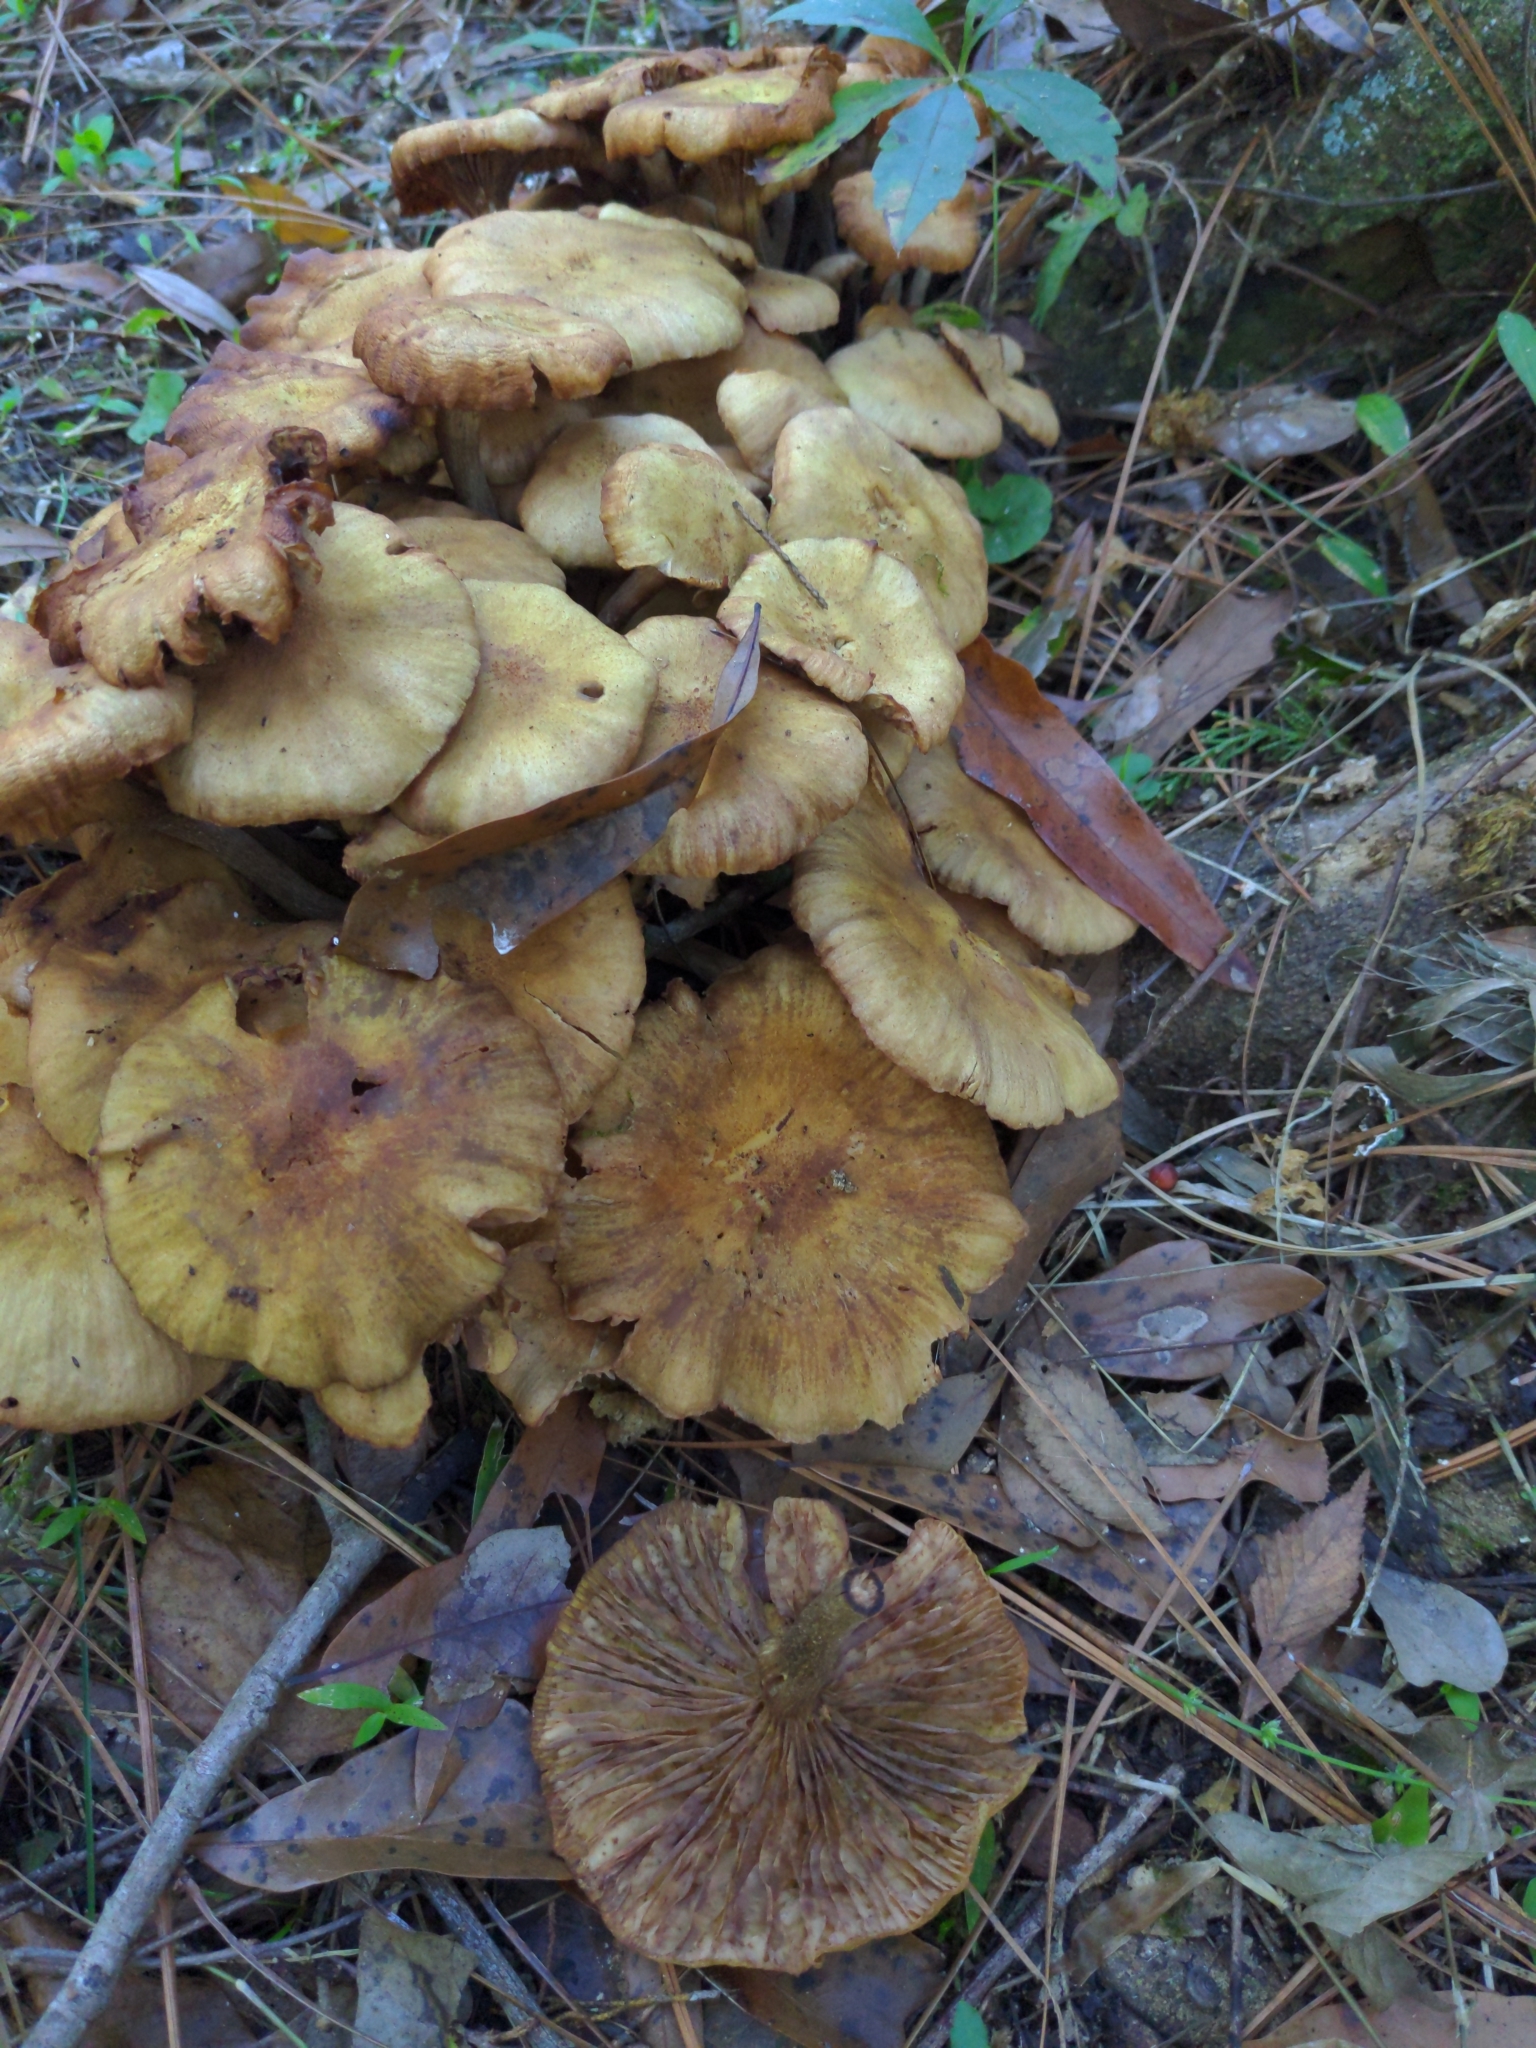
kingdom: Fungi
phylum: Basidiomycota
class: Agaricomycetes
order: Agaricales
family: Physalacriaceae
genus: Desarmillaria
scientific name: Desarmillaria caespitosa
